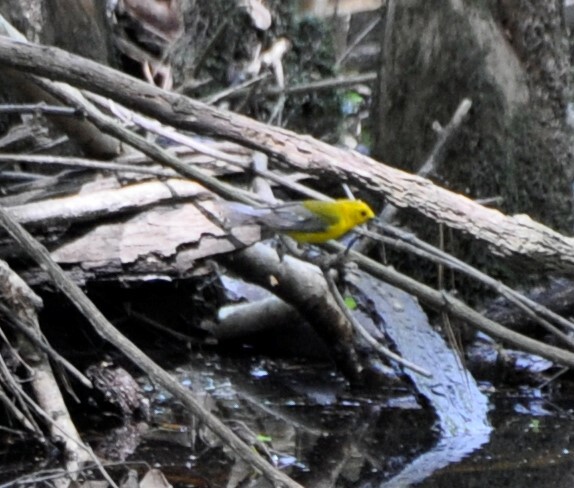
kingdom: Animalia
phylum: Chordata
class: Aves
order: Passeriformes
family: Parulidae
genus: Protonotaria
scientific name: Protonotaria citrea
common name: Prothonotary warbler
